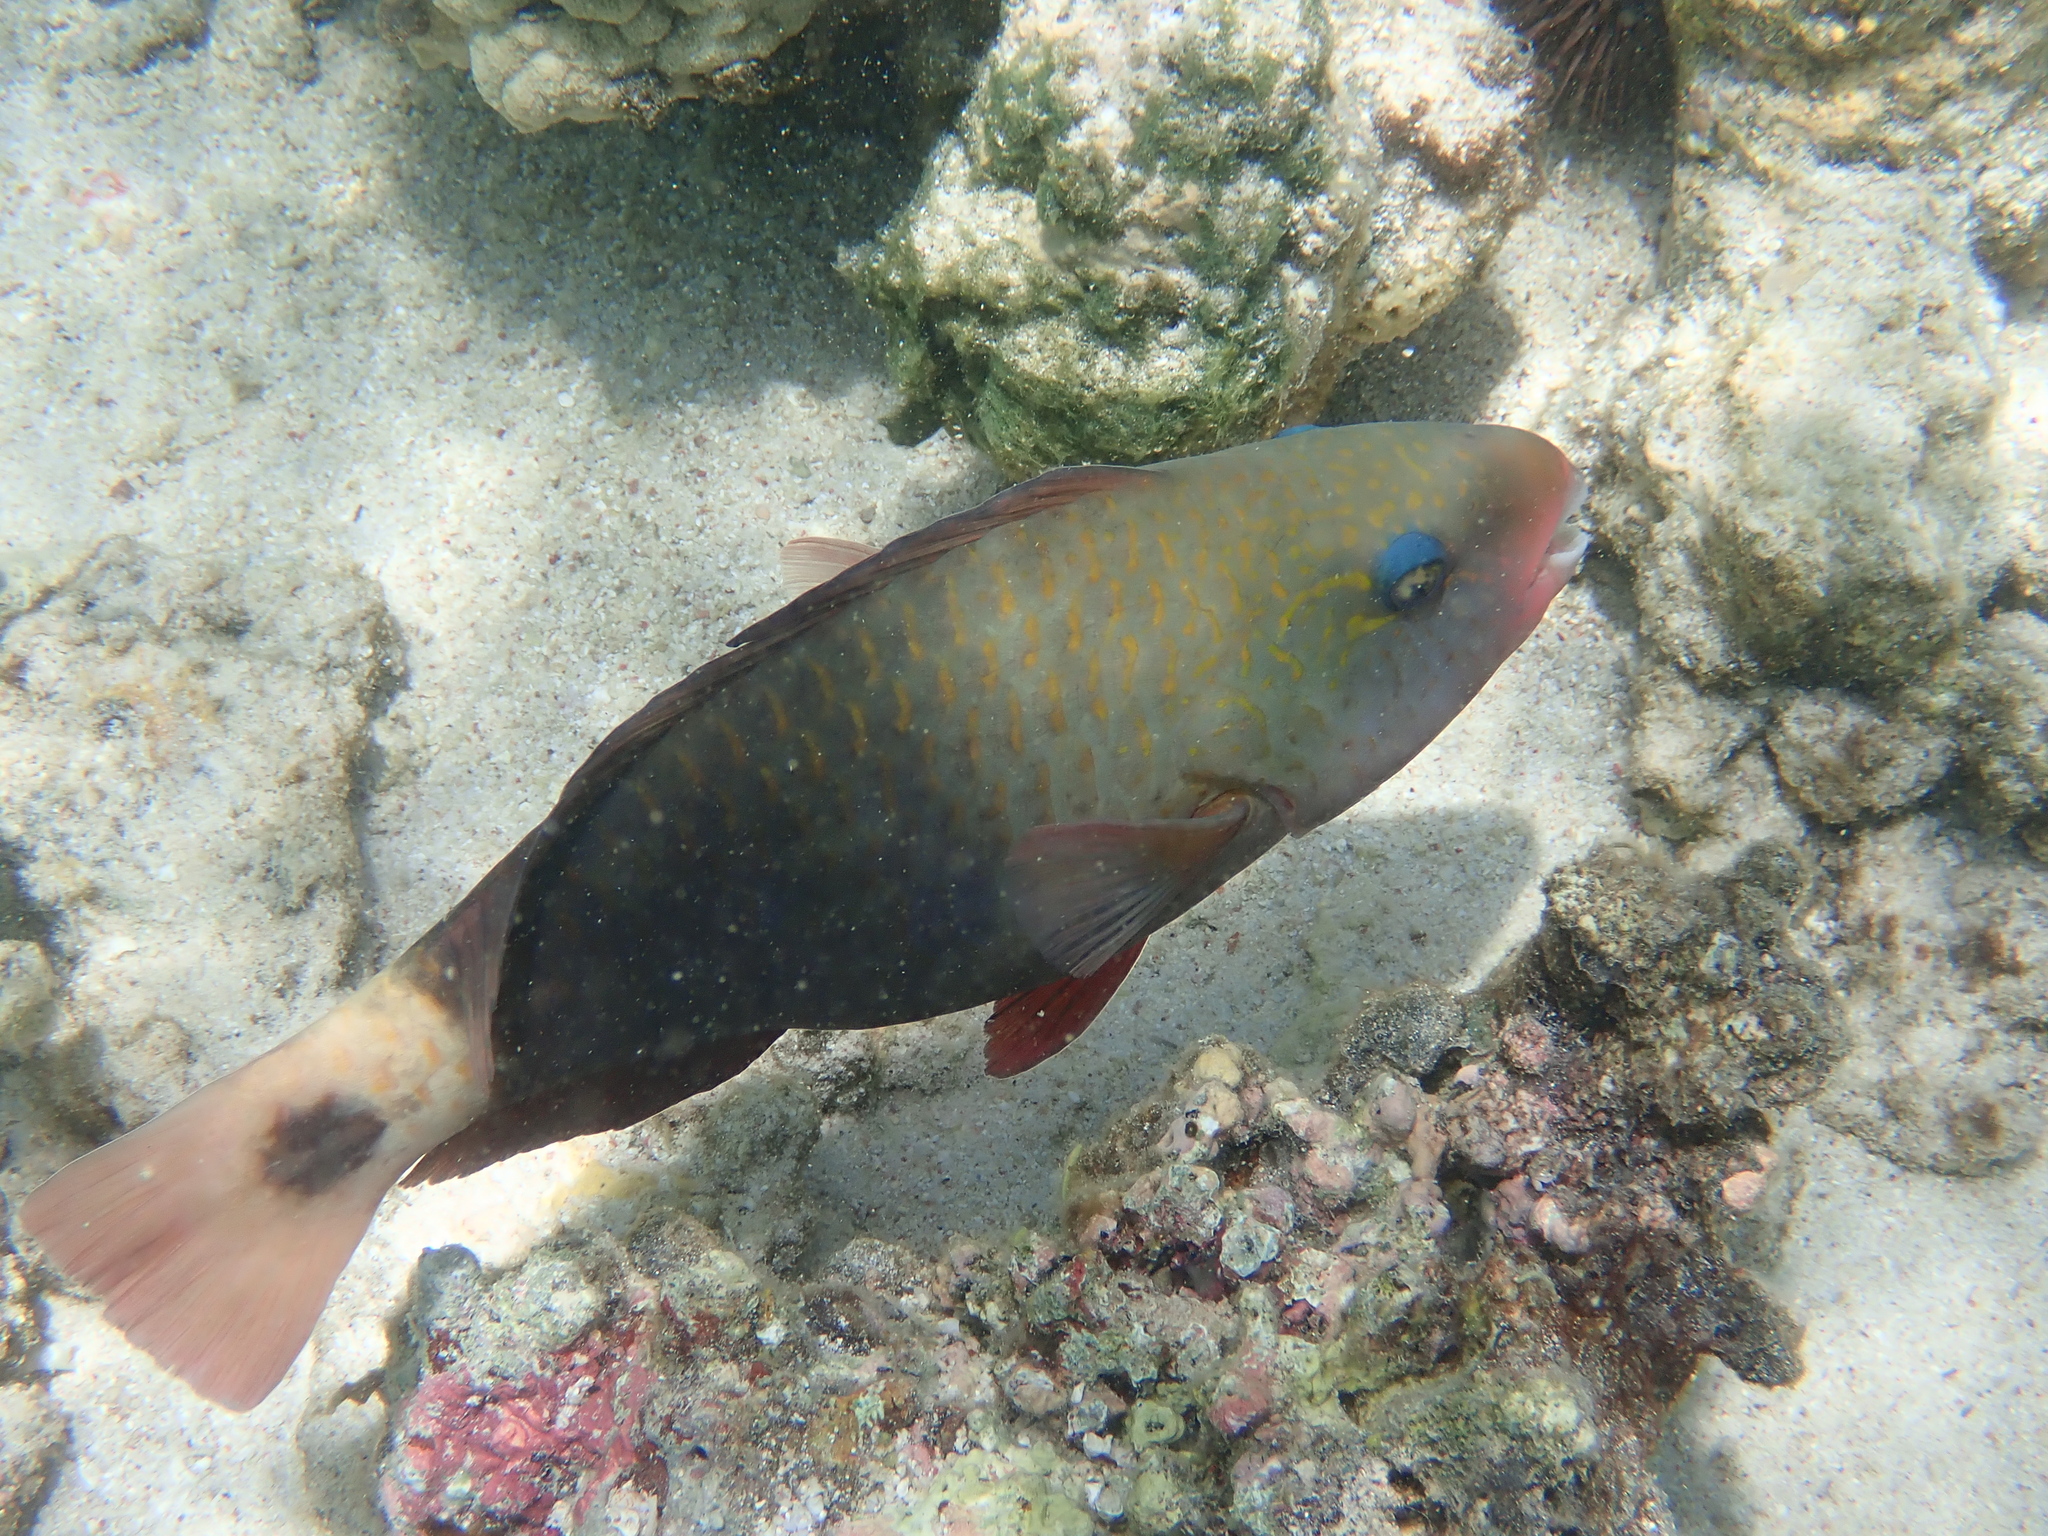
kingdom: Animalia
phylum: Chordata
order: Perciformes
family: Scaridae
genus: Chlorurus
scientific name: Chlorurus sordidus
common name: Bullethead parrotfish
